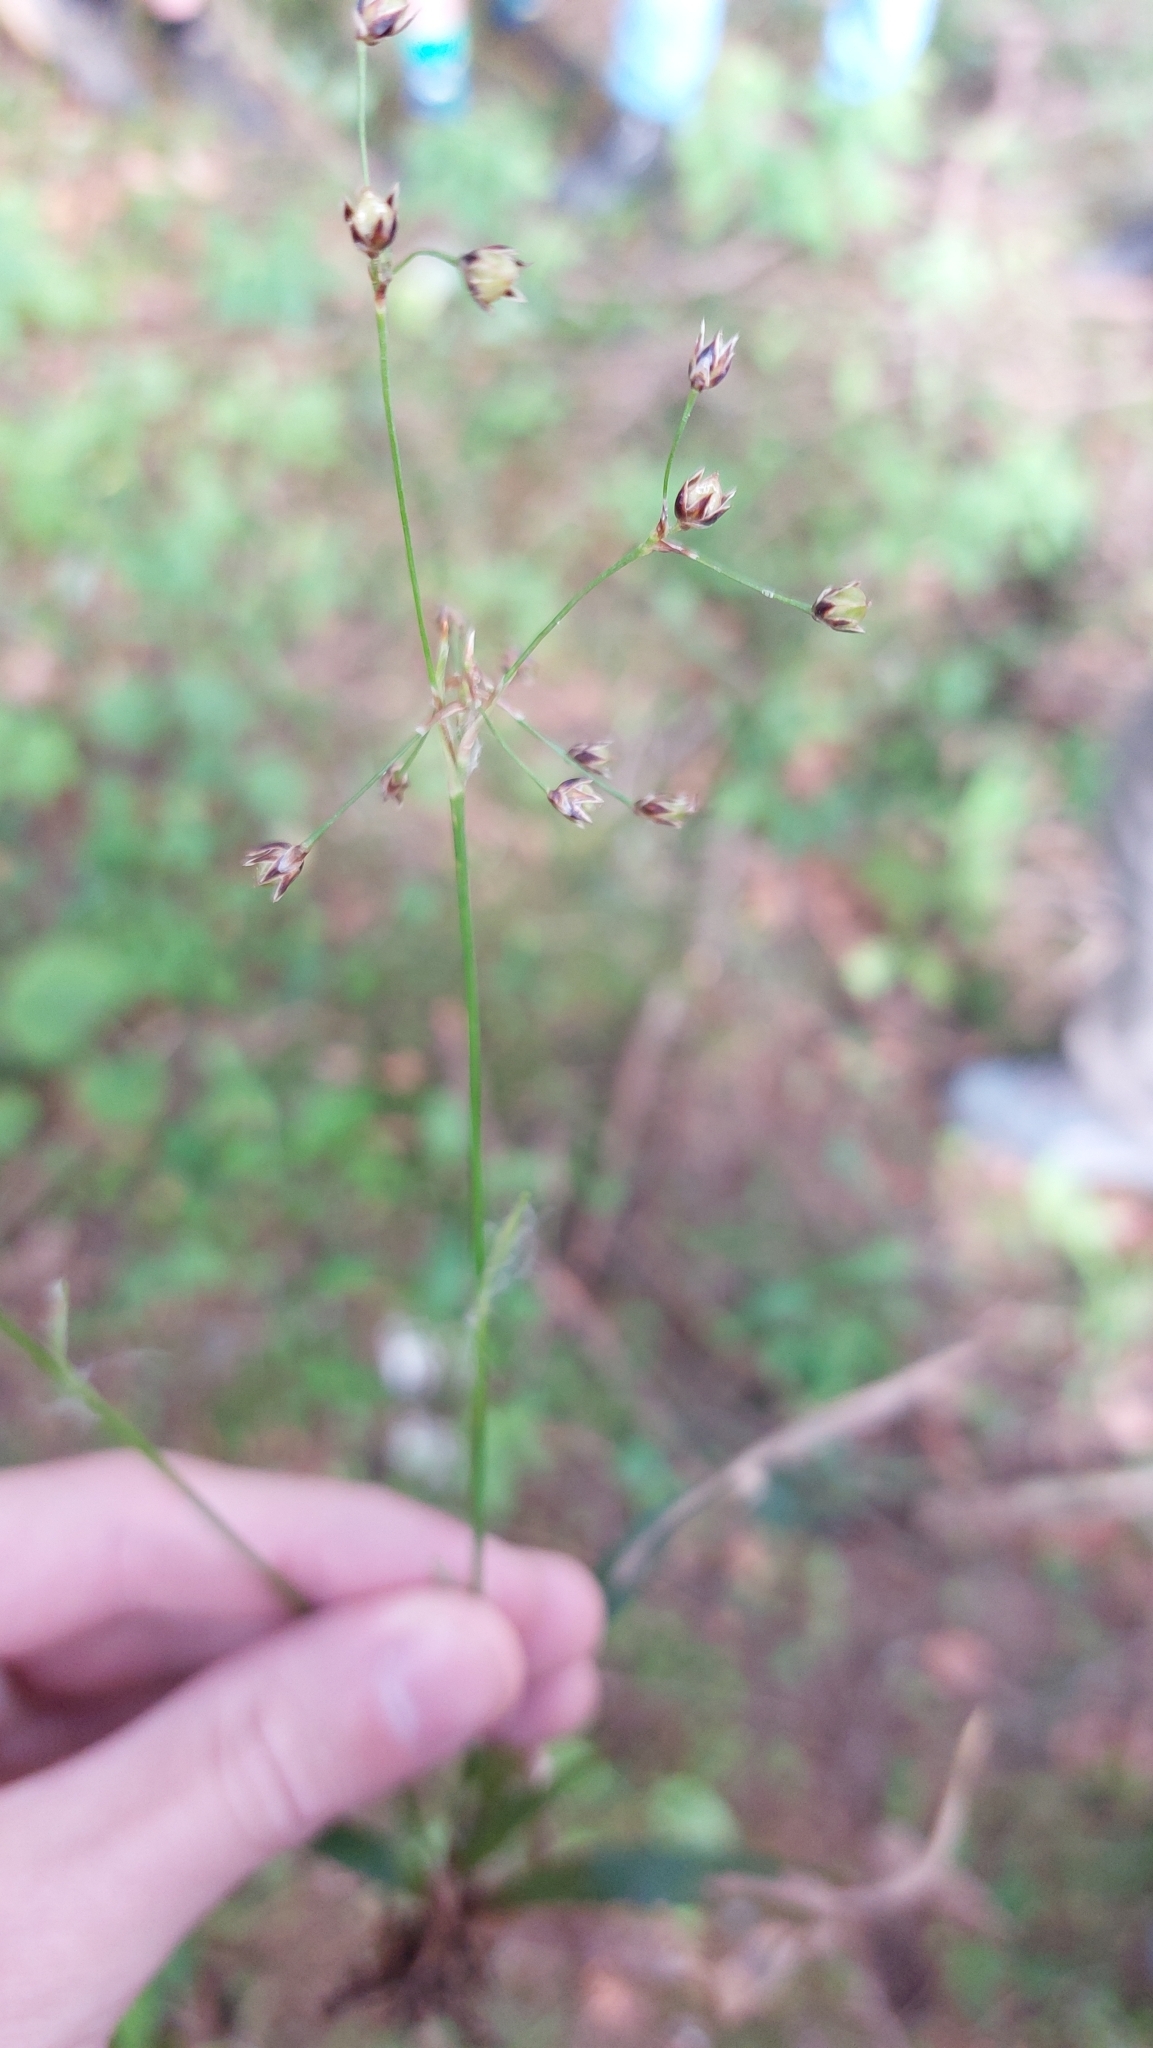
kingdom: Plantae
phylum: Tracheophyta
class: Liliopsida
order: Poales
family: Juncaceae
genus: Luzula
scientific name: Luzula pilosa
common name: Hairy wood-rush
